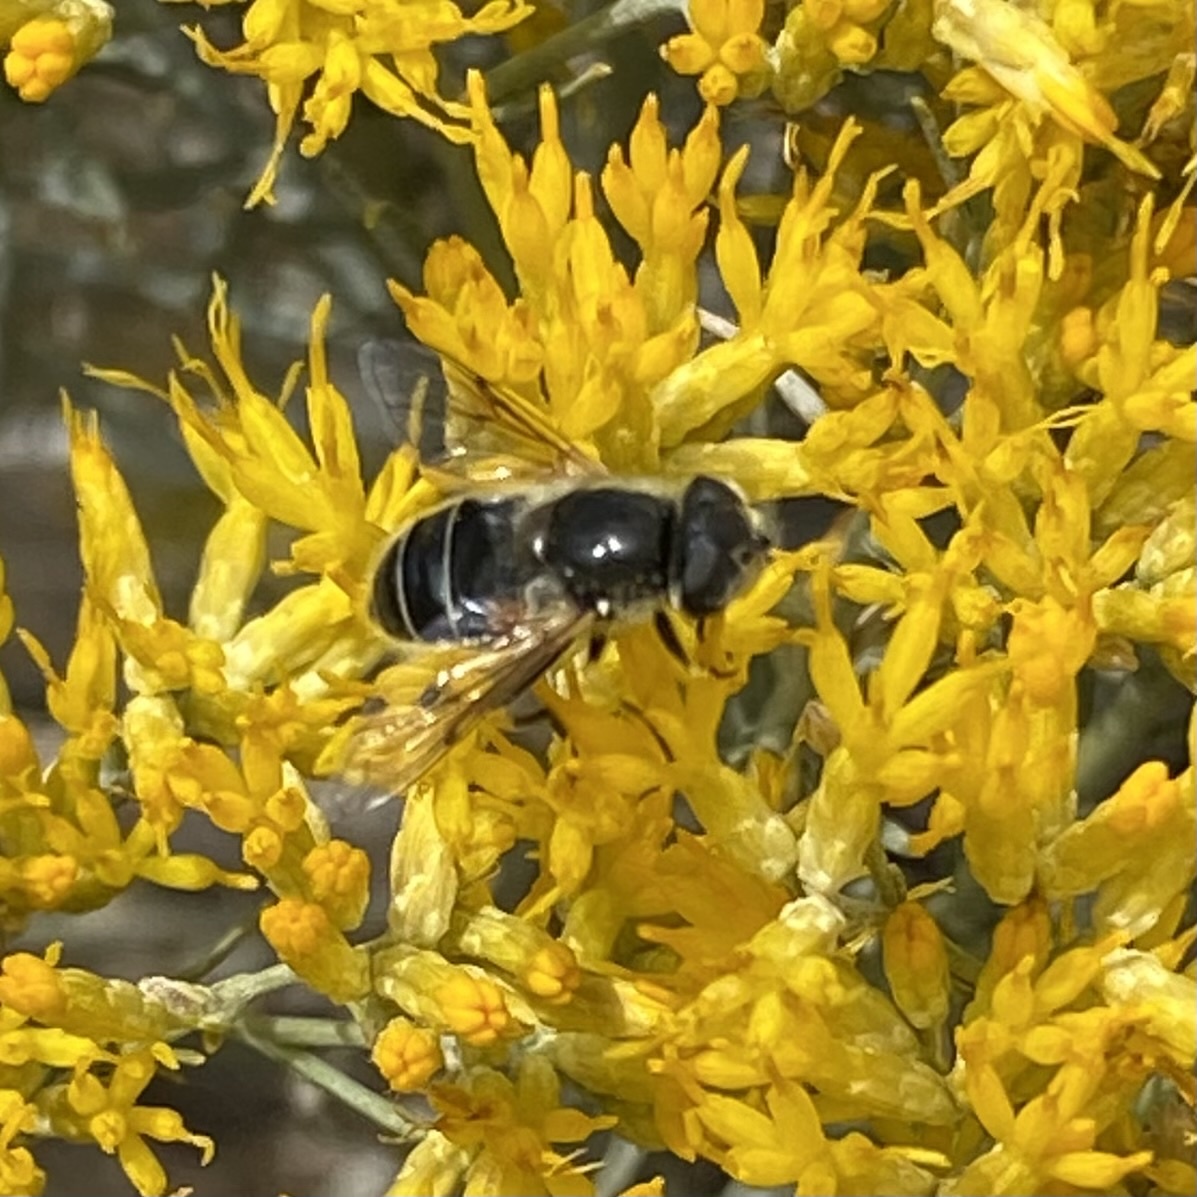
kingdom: Animalia
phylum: Arthropoda
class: Insecta
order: Diptera
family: Syrphidae
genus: Eristalis
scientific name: Eristalis hirta
